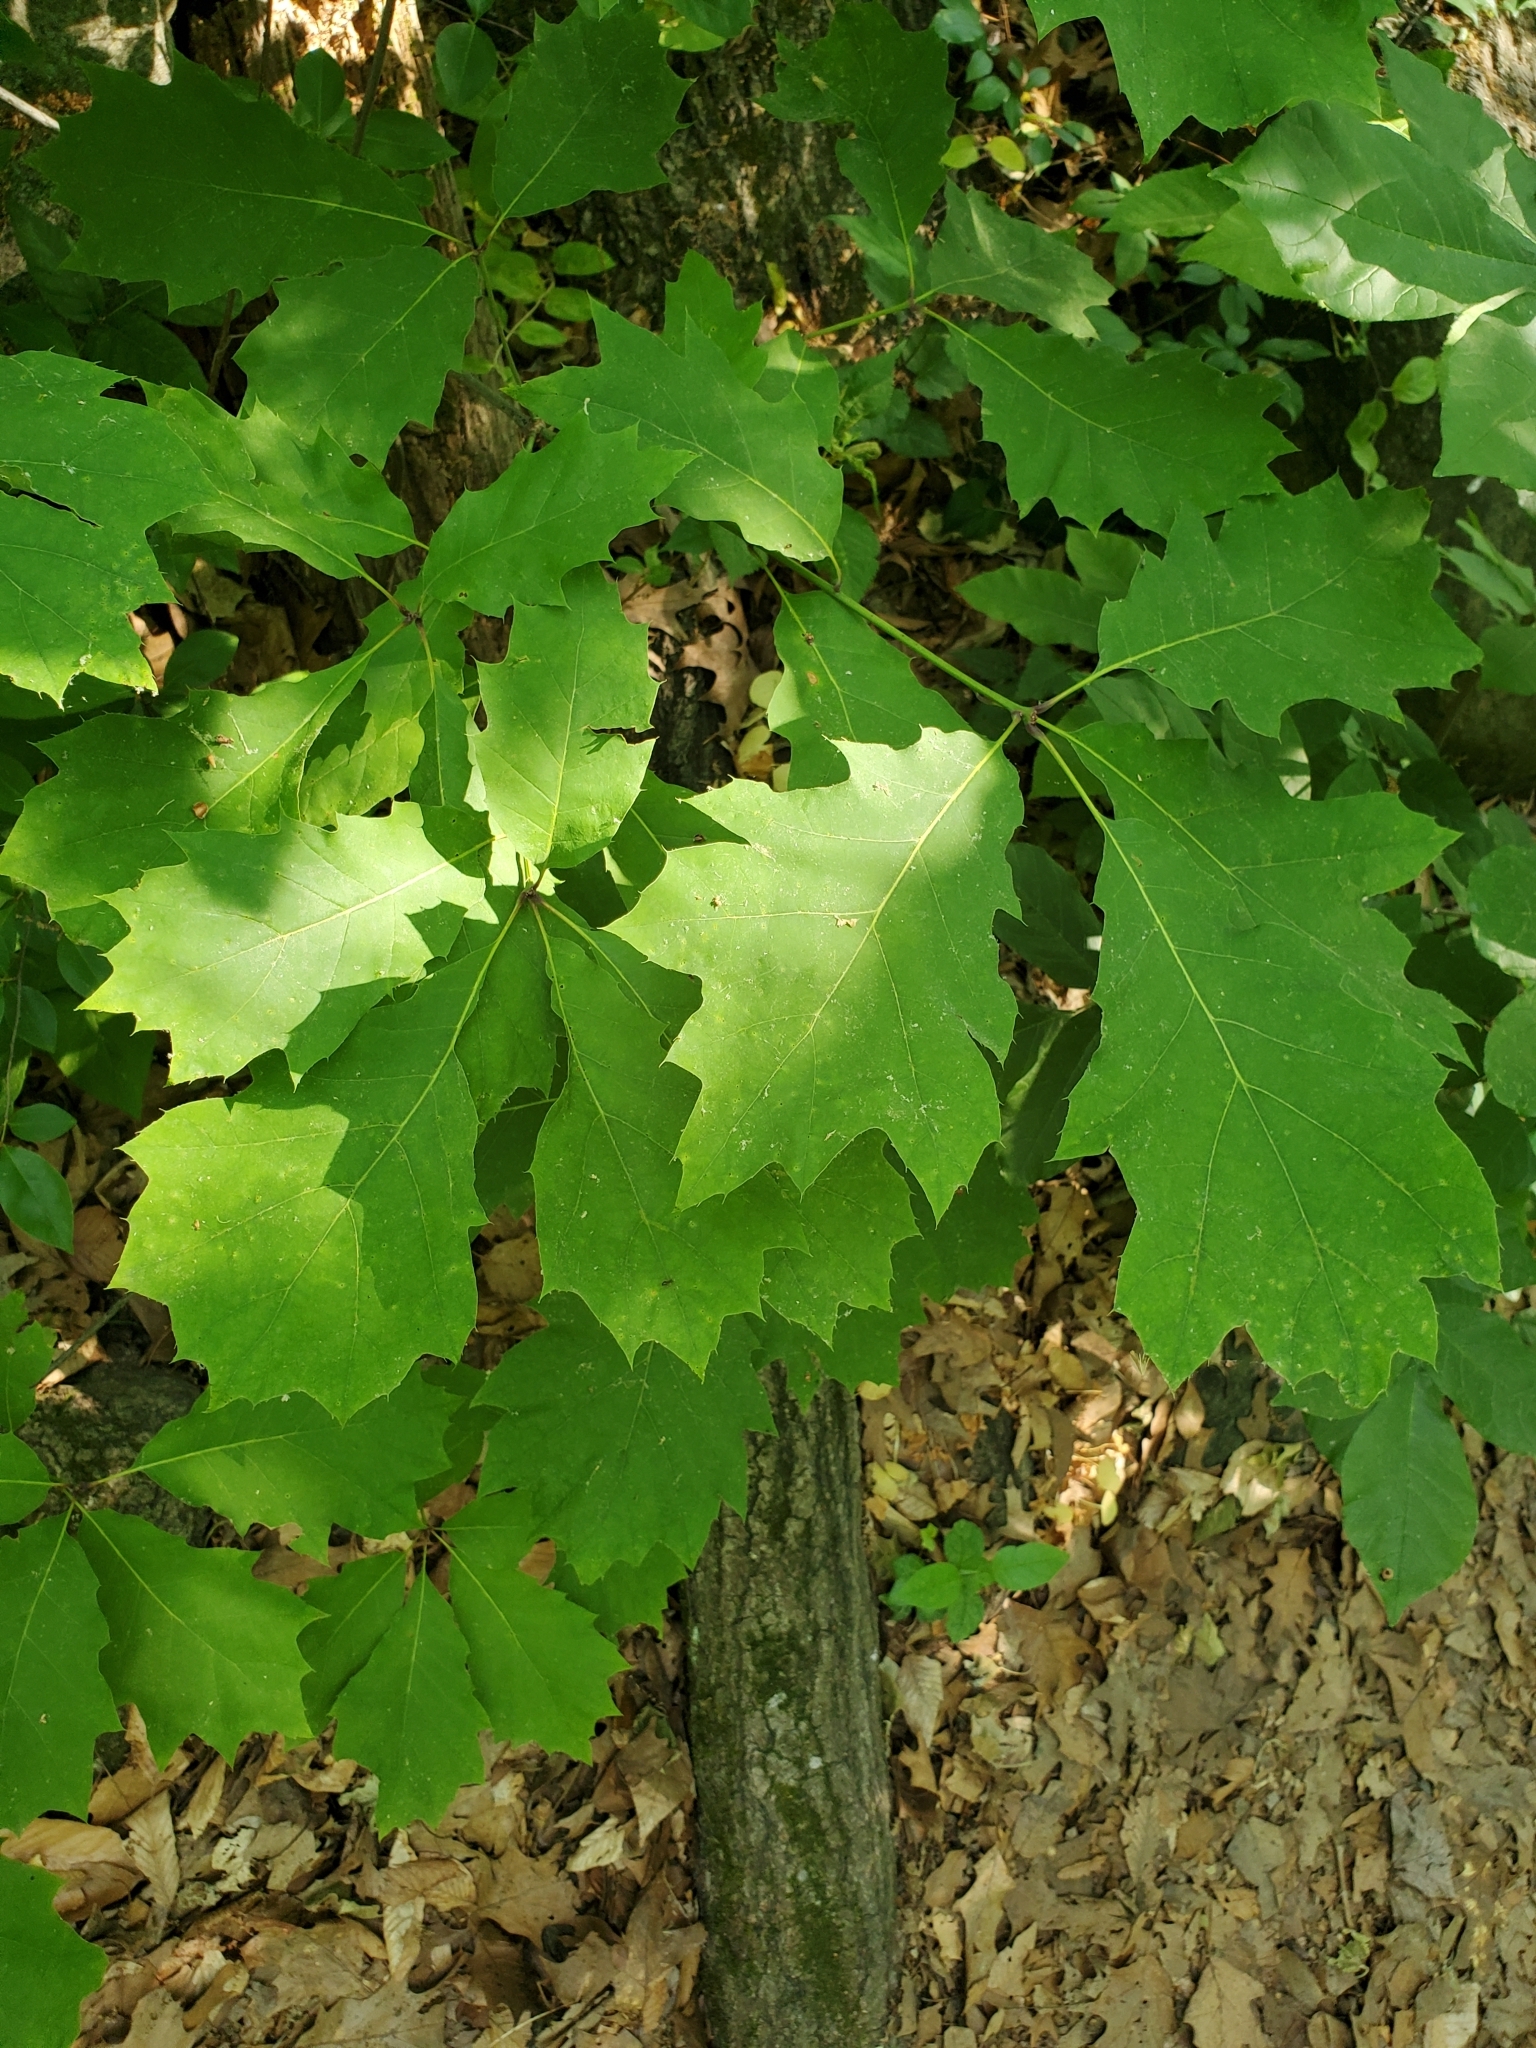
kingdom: Plantae
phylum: Tracheophyta
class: Magnoliopsida
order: Fagales
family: Fagaceae
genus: Quercus
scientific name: Quercus rubra
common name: Red oak
